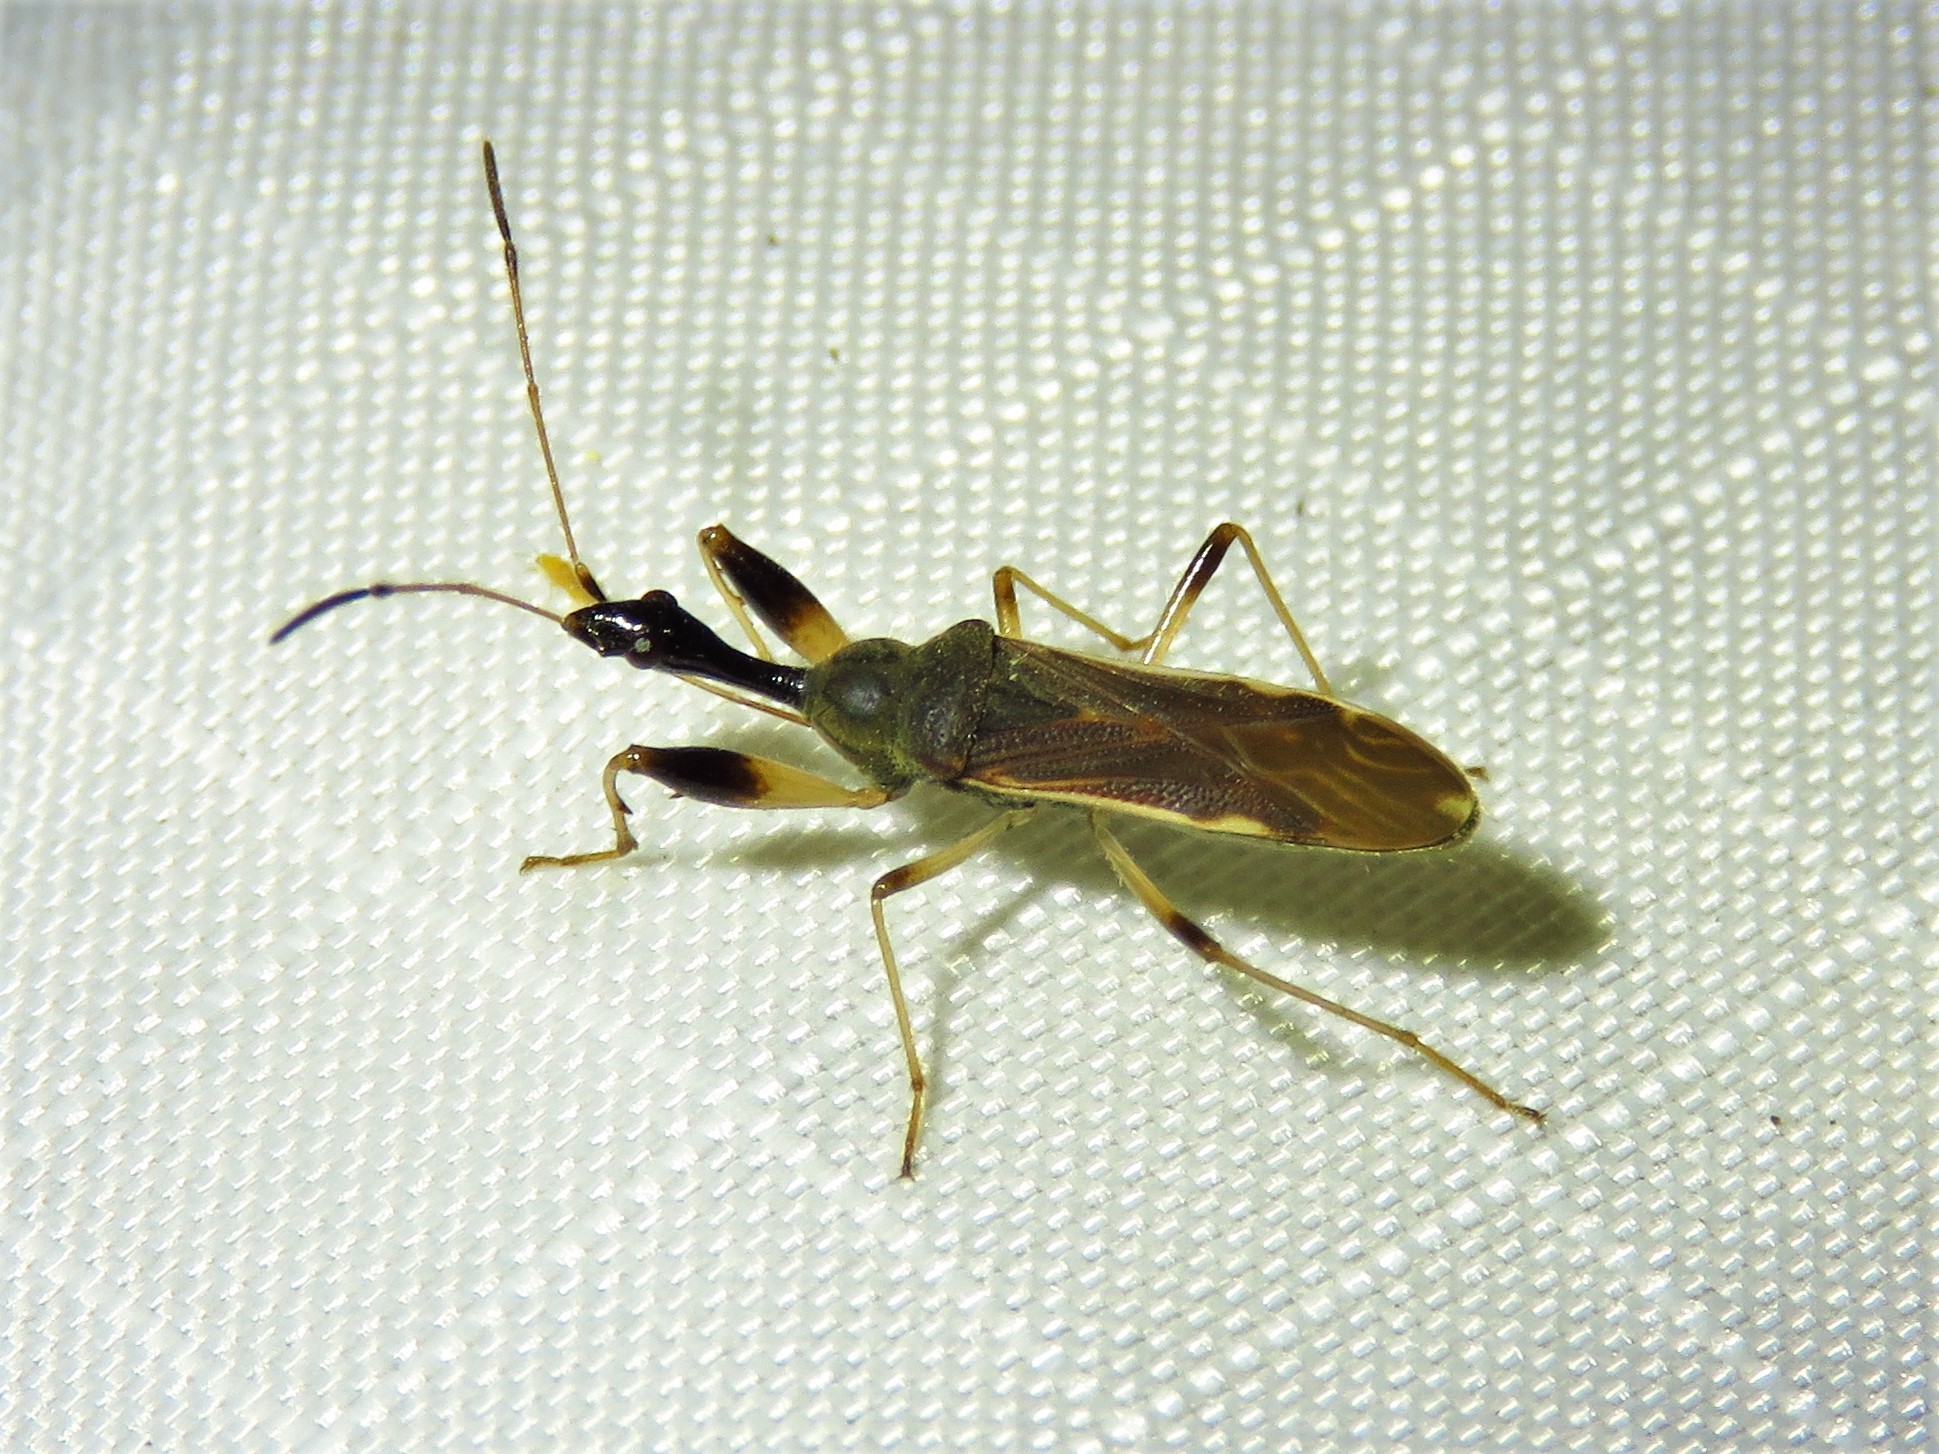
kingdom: Animalia
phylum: Arthropoda
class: Insecta
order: Hemiptera
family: Rhyparochromidae
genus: Myodocha
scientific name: Myodocha serripes
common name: Long-necked seed bug
